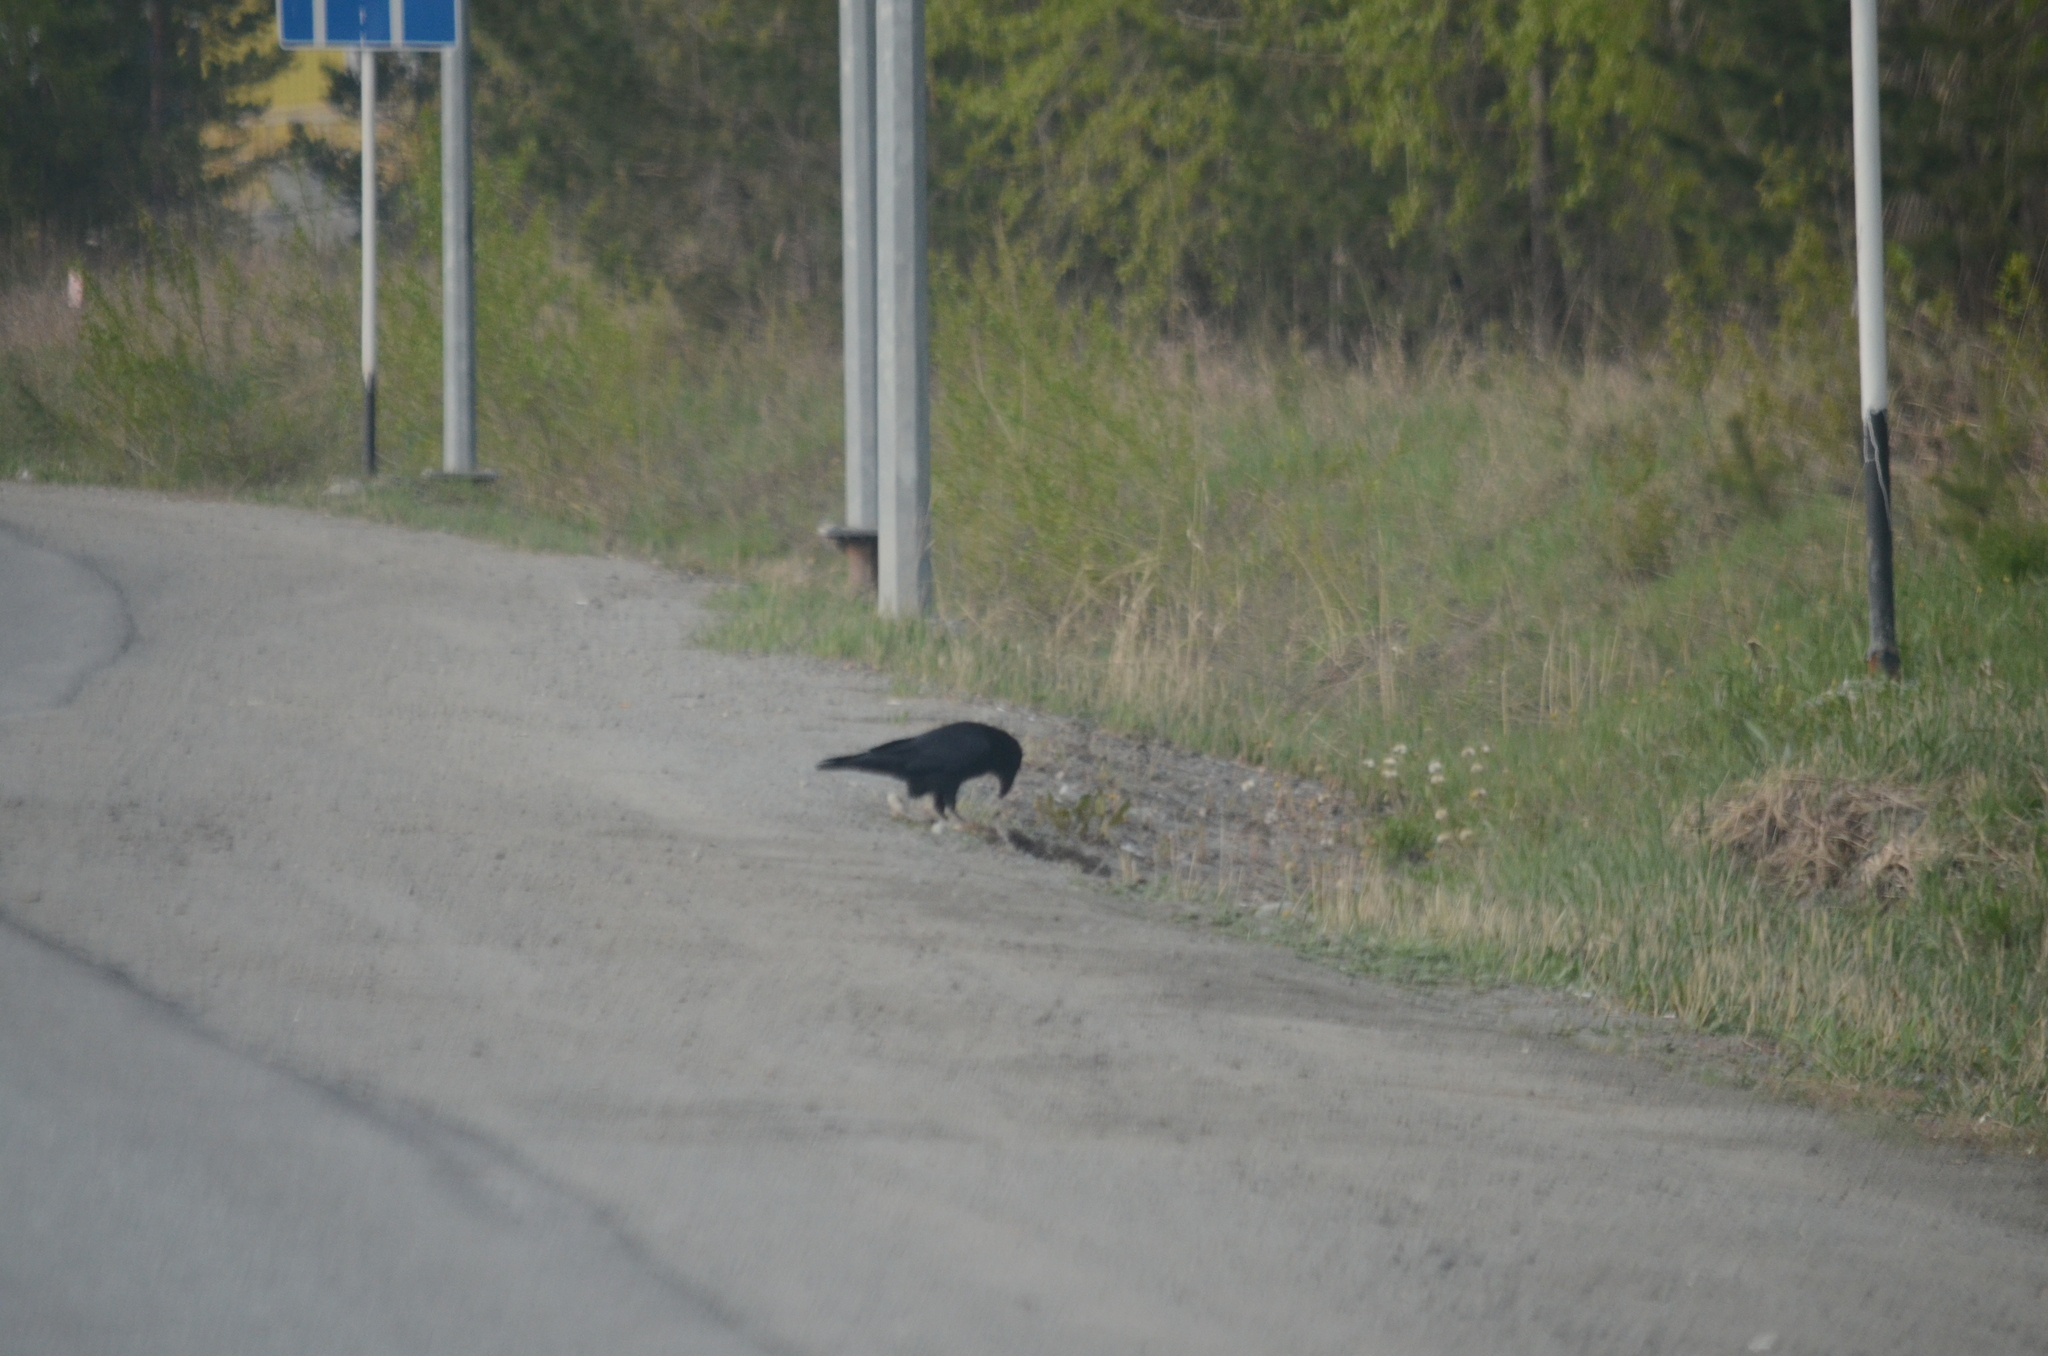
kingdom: Animalia
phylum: Chordata
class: Aves
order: Passeriformes
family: Corvidae
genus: Corvus
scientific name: Corvus corax
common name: Common raven
